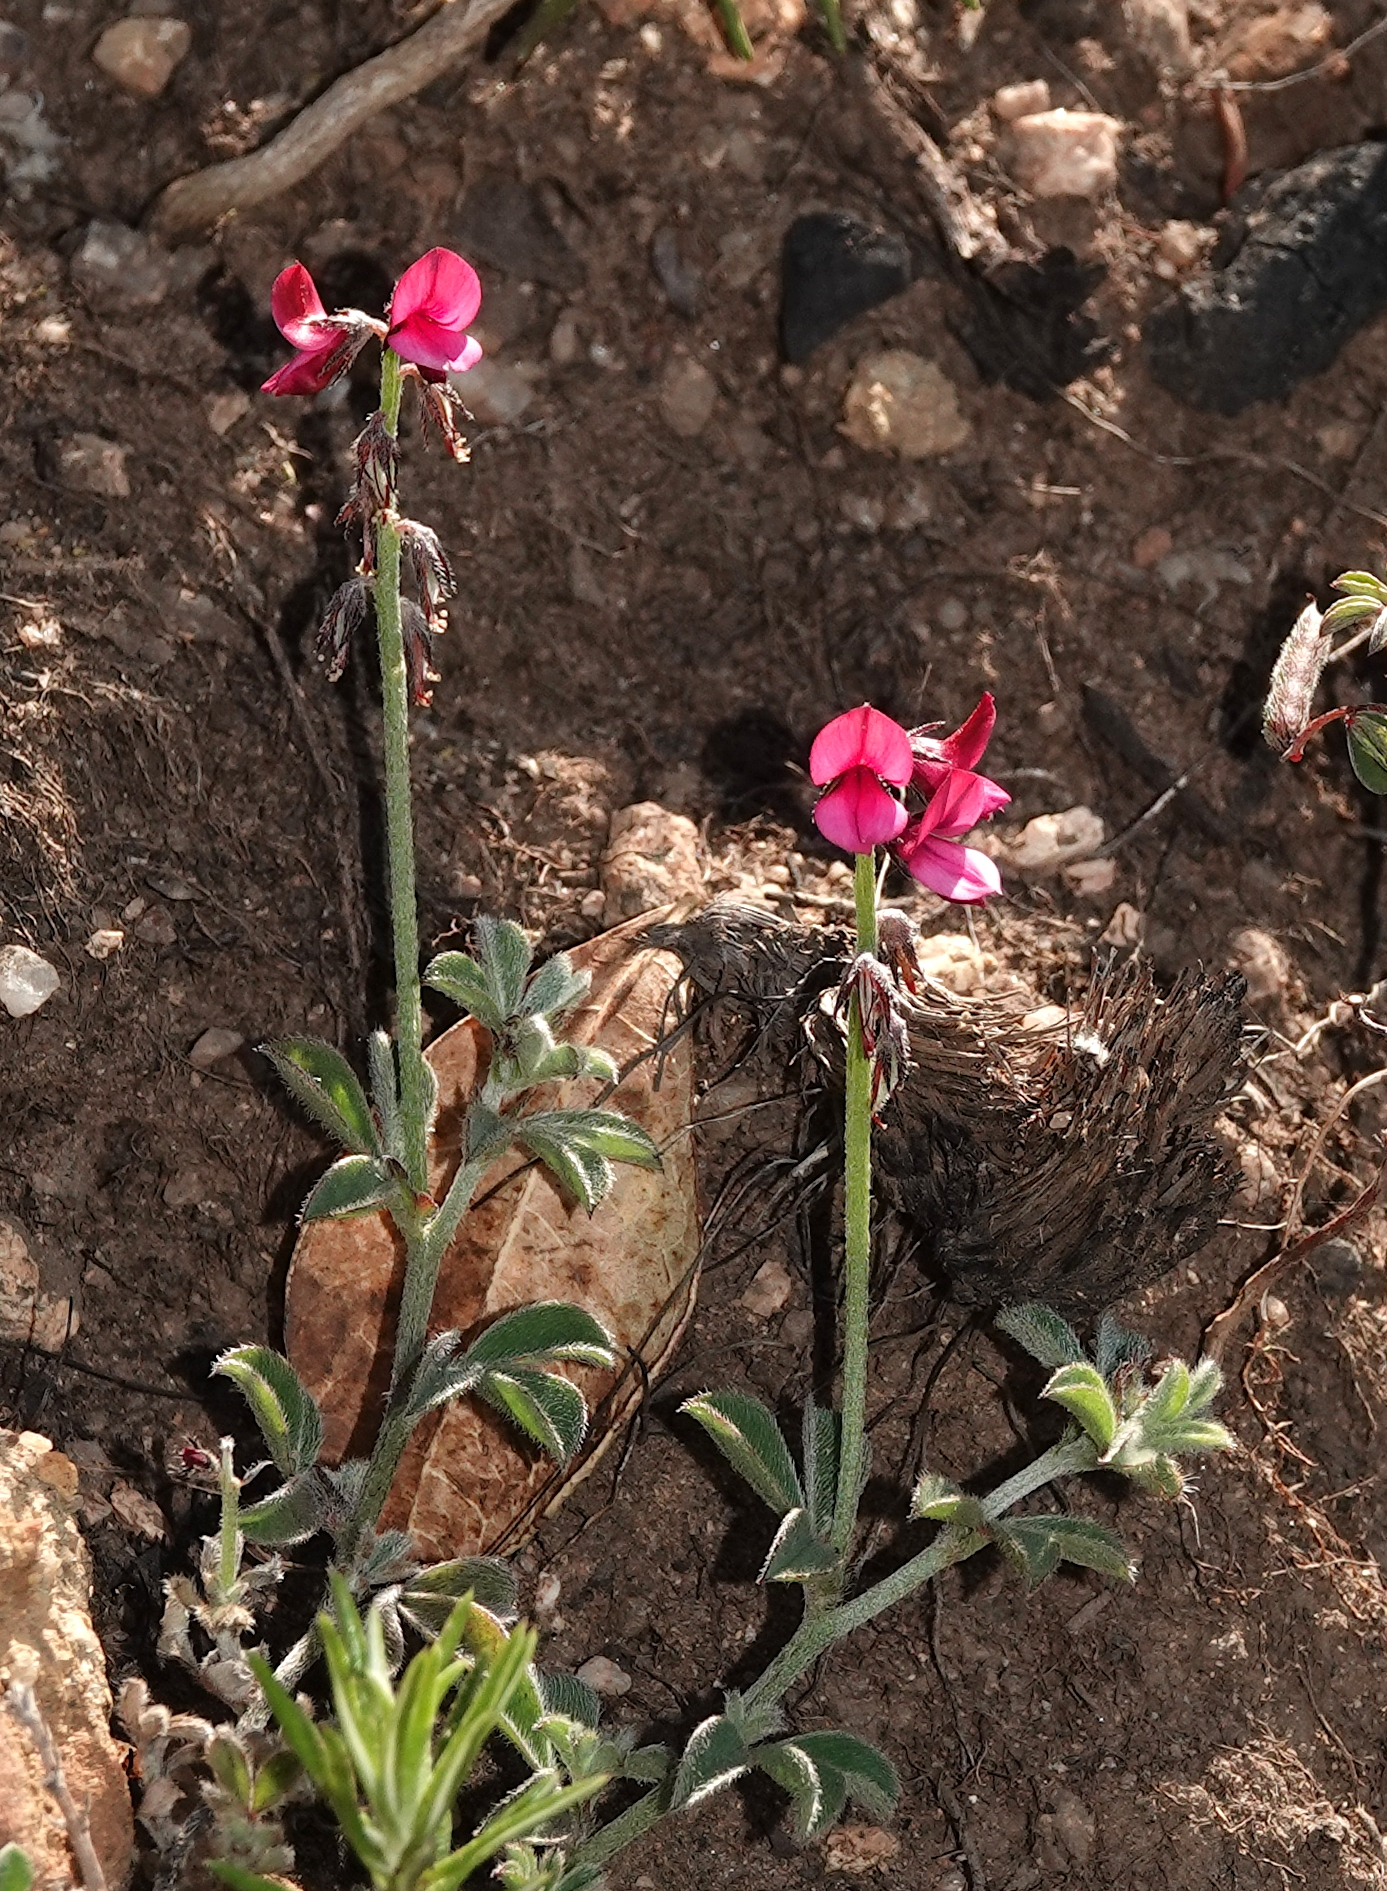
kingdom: Plantae
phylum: Tracheophyta
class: Magnoliopsida
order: Fabales
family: Fabaceae
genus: Indigofera
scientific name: Indigofera incana
